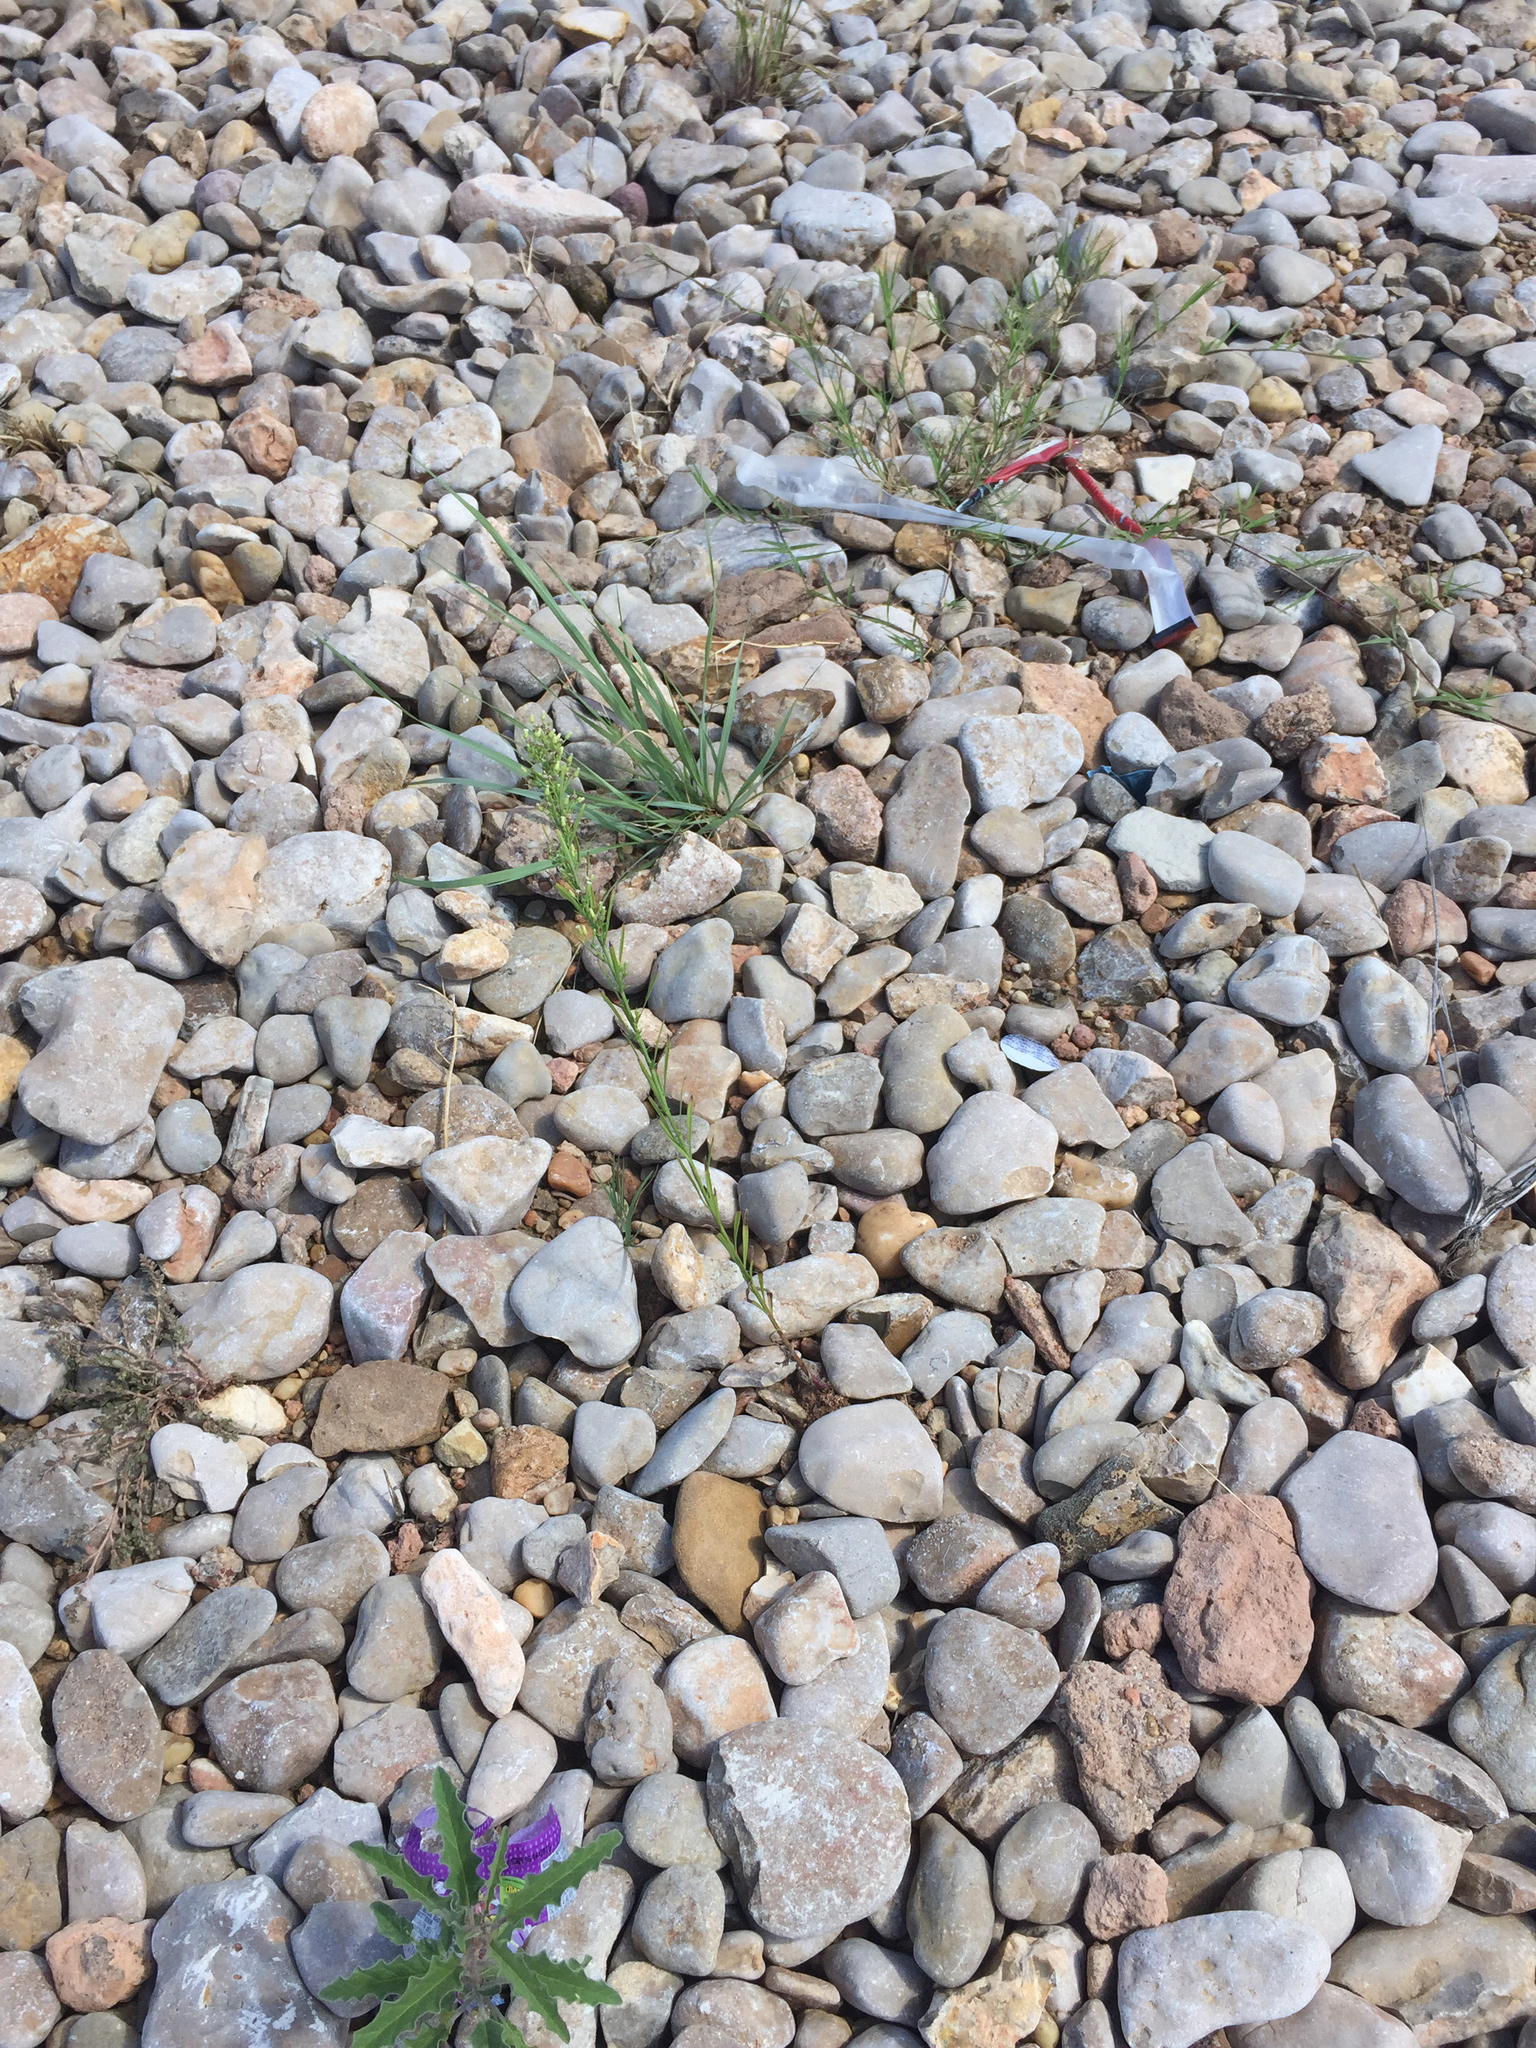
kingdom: Plantae
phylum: Tracheophyta
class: Magnoliopsida
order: Asterales
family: Asteraceae
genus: Erigeron
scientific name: Erigeron canadensis
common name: Canadian fleabane
